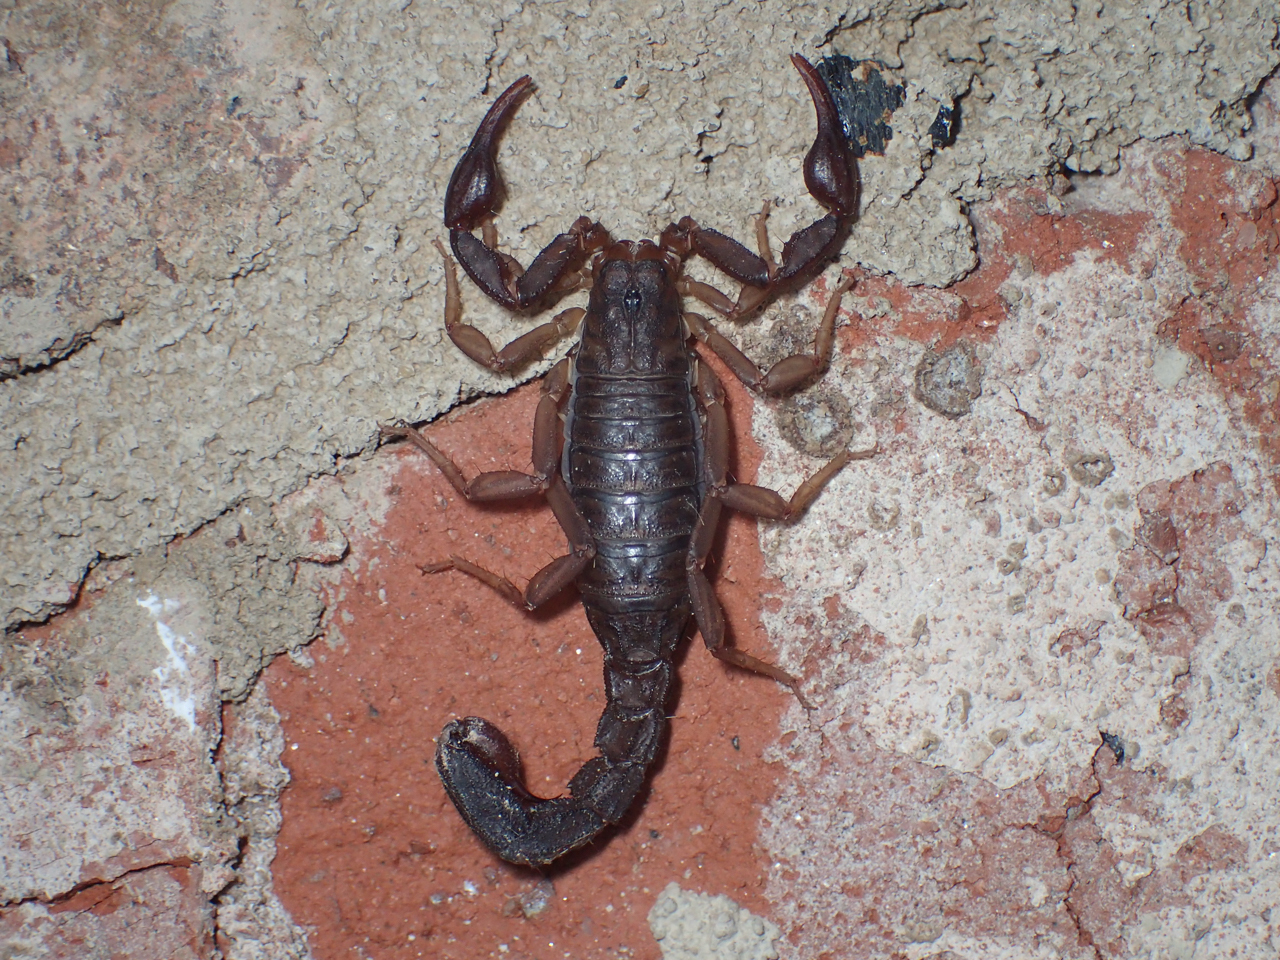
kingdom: Animalia
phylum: Arthropoda
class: Arachnida
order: Scorpiones
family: Vaejovidae
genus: Vaejovis
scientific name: Vaejovis carolinianus
